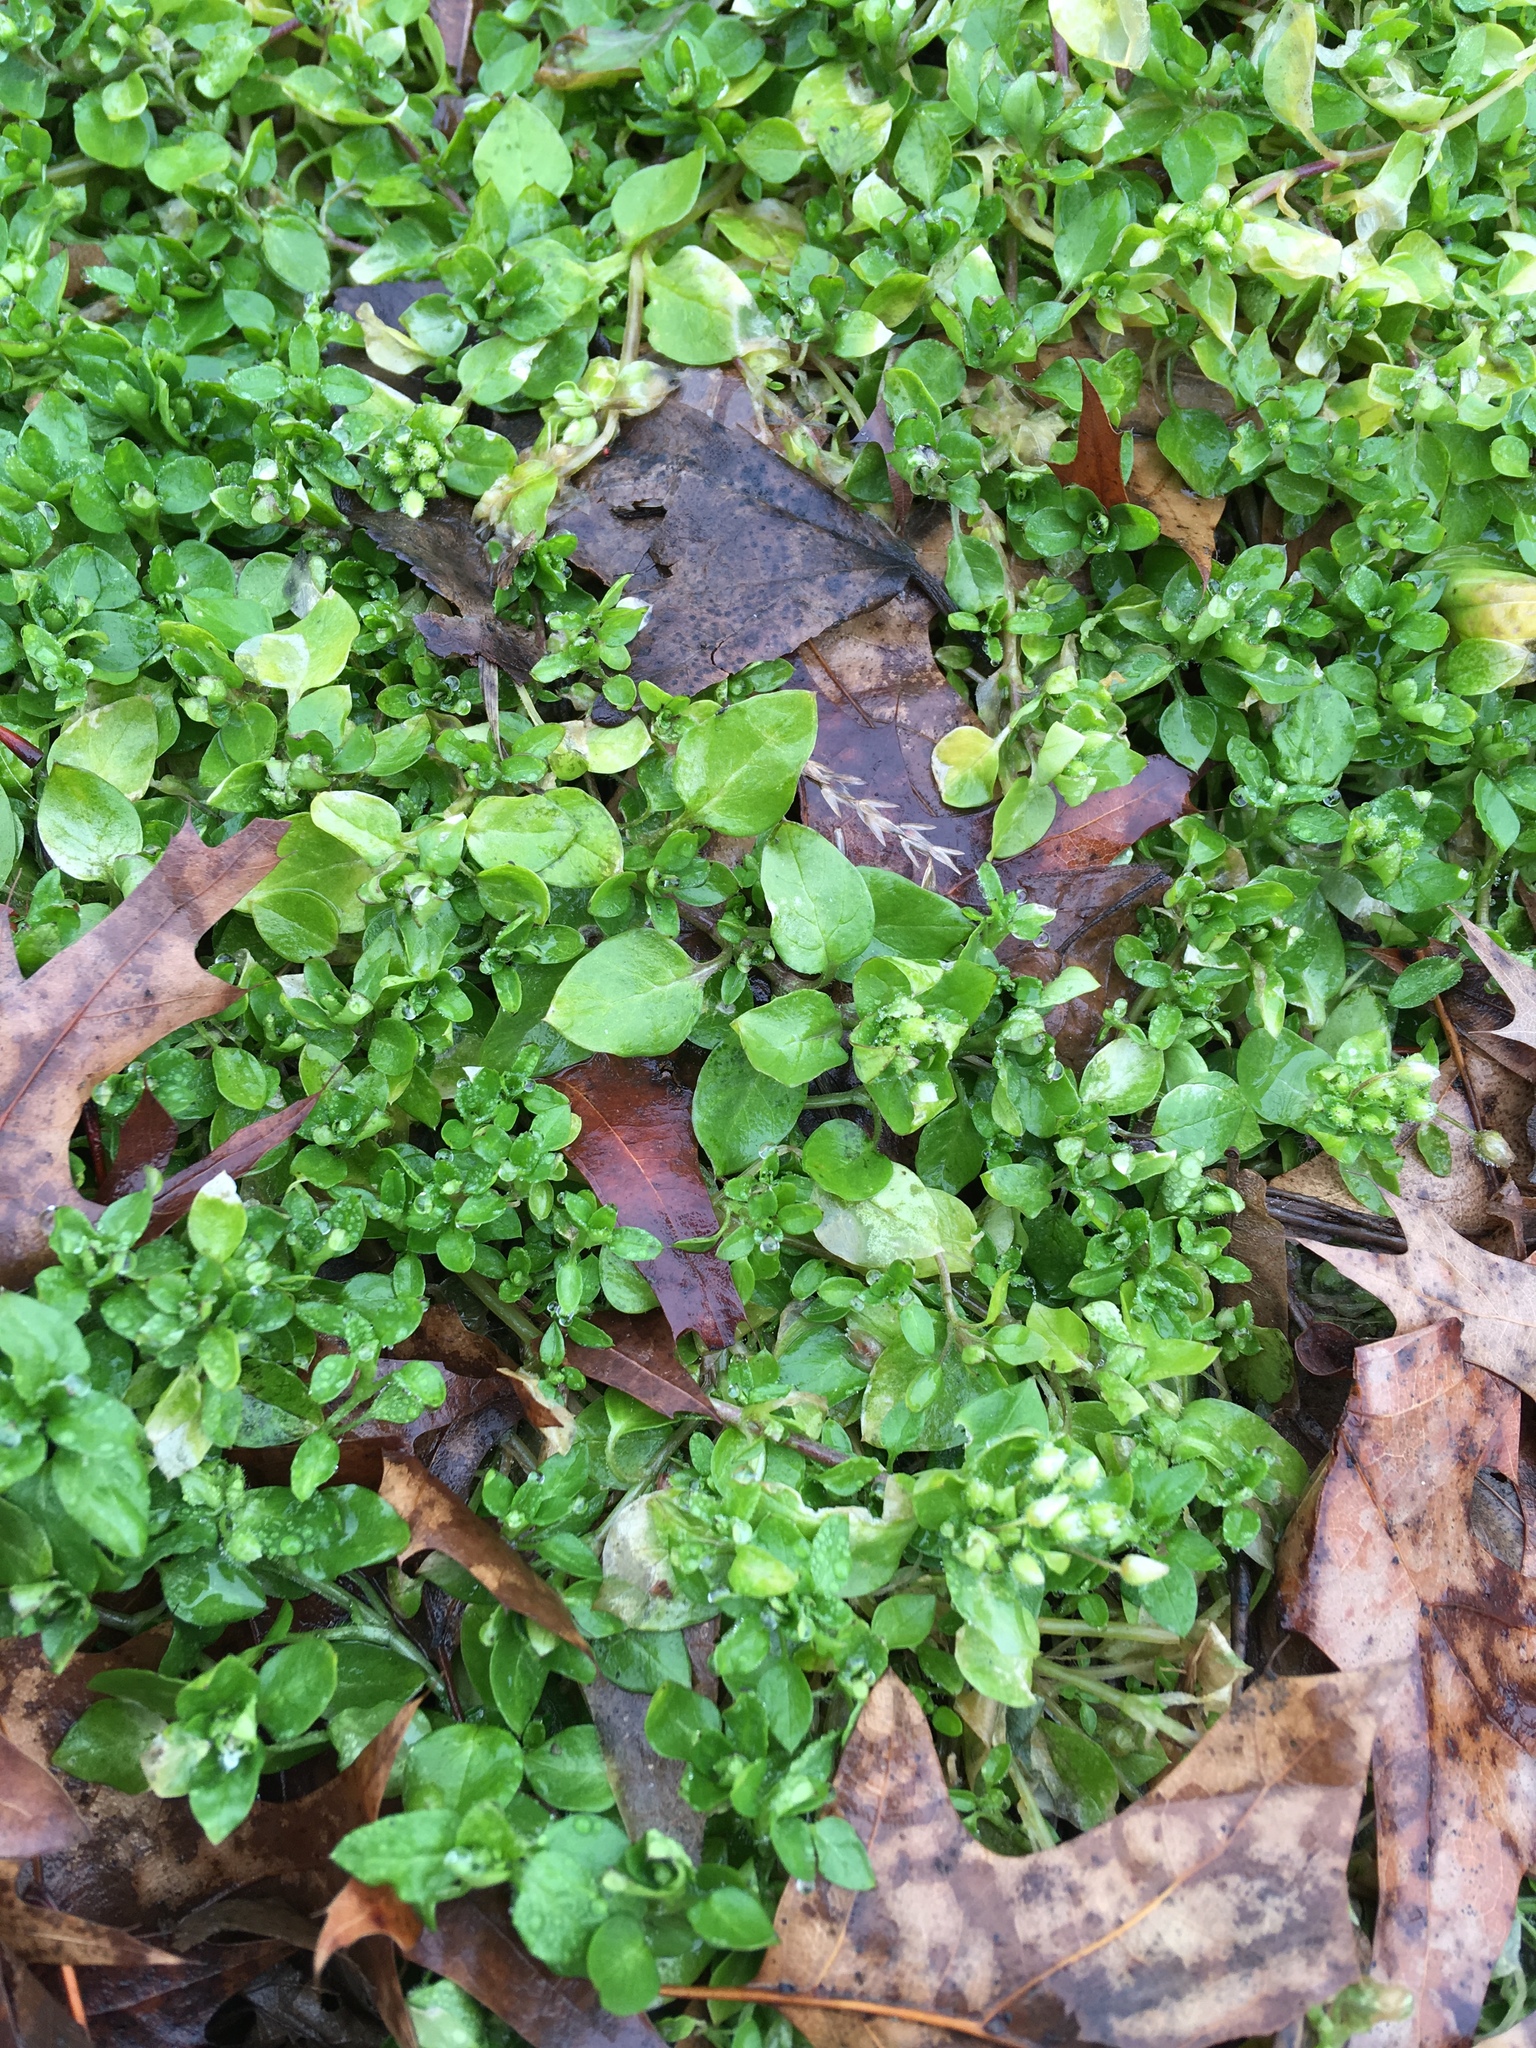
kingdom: Plantae
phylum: Tracheophyta
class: Magnoliopsida
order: Caryophyllales
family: Caryophyllaceae
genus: Stellaria
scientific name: Stellaria media
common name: Common chickweed
